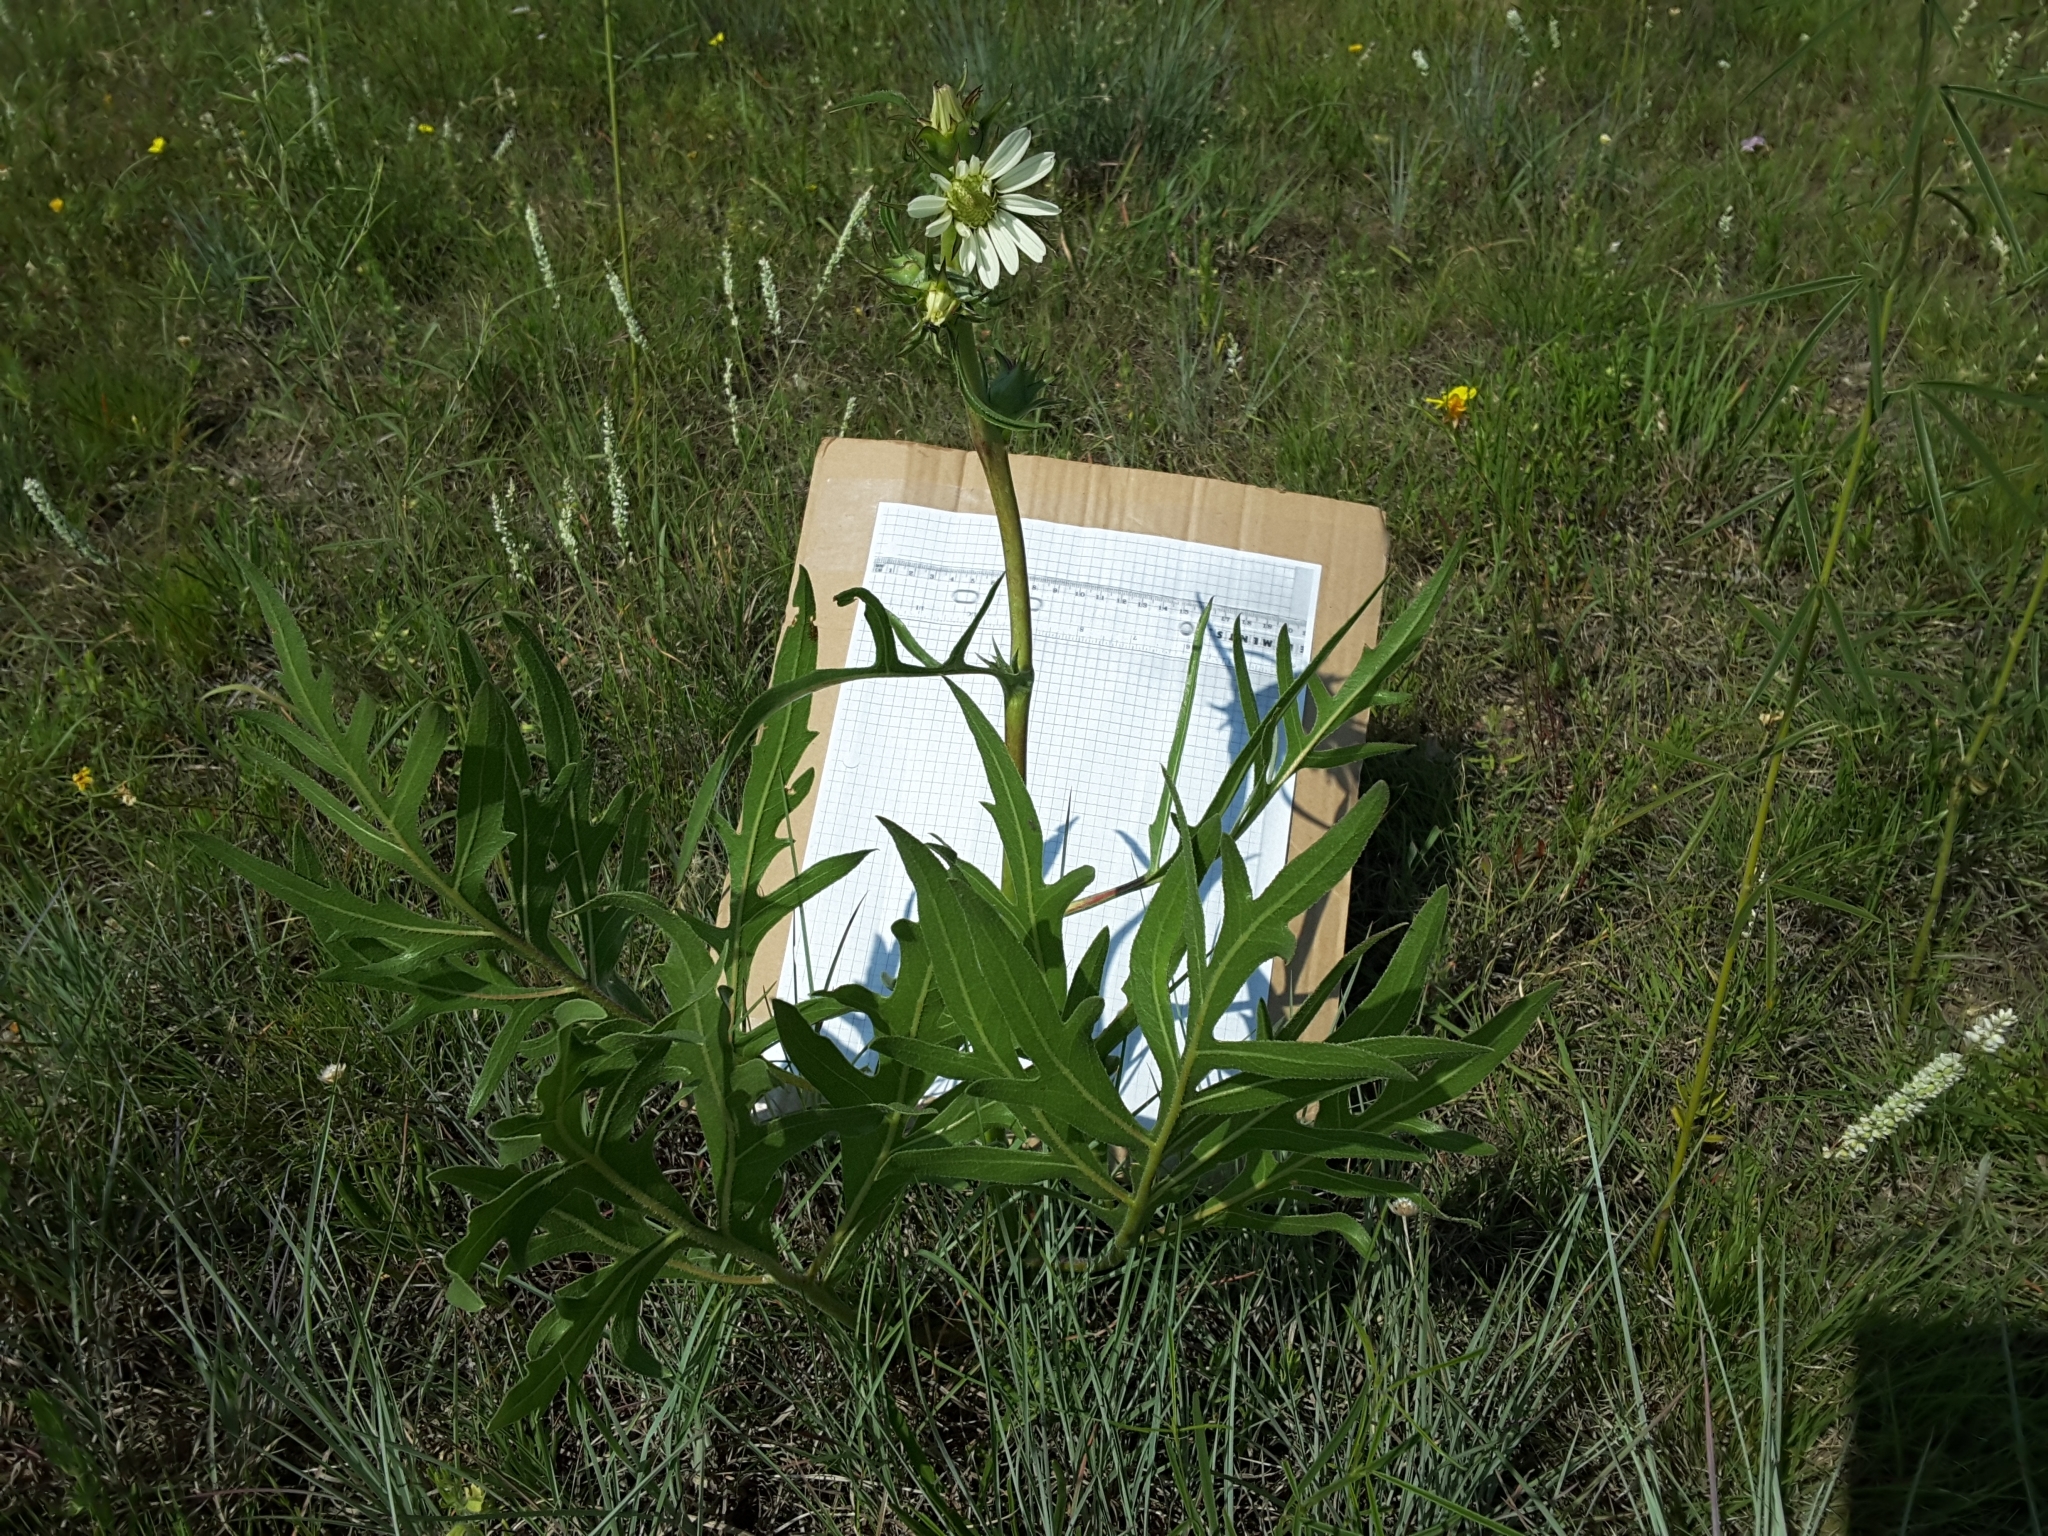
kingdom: Plantae
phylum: Tracheophyta
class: Magnoliopsida
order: Asterales
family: Asteraceae
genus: Silphium
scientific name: Silphium albiflorum
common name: White rosinweed
